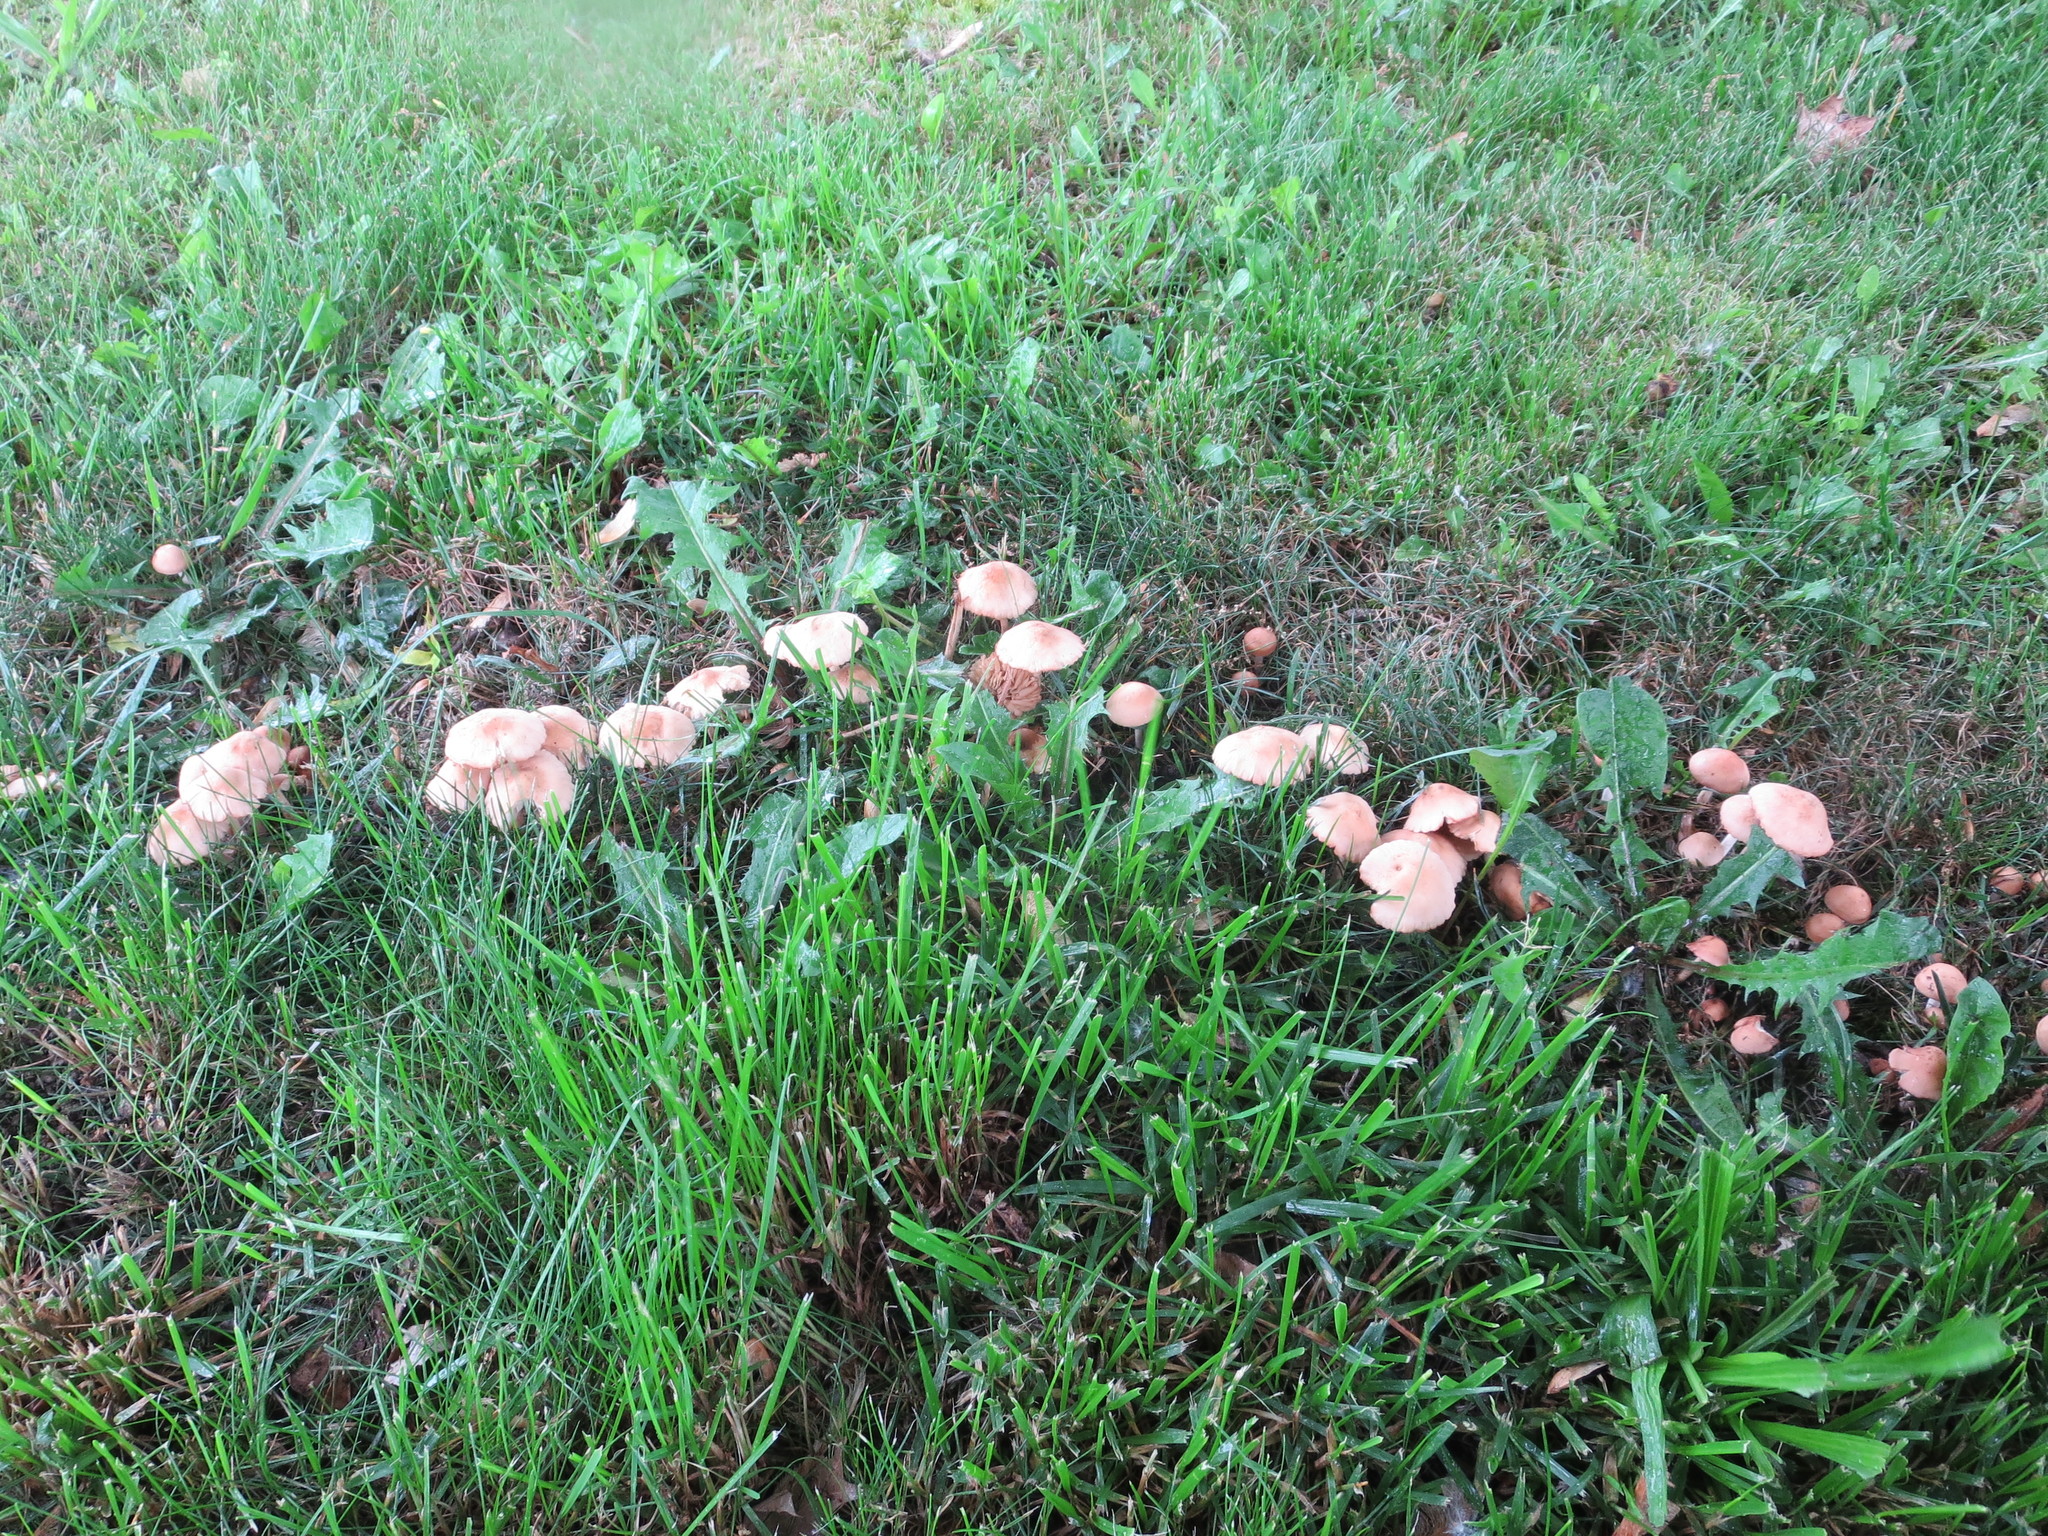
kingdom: Fungi
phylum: Basidiomycota
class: Agaricomycetes
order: Agaricales
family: Marasmiaceae
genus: Marasmius
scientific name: Marasmius oreades
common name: Fairy ring champignon
